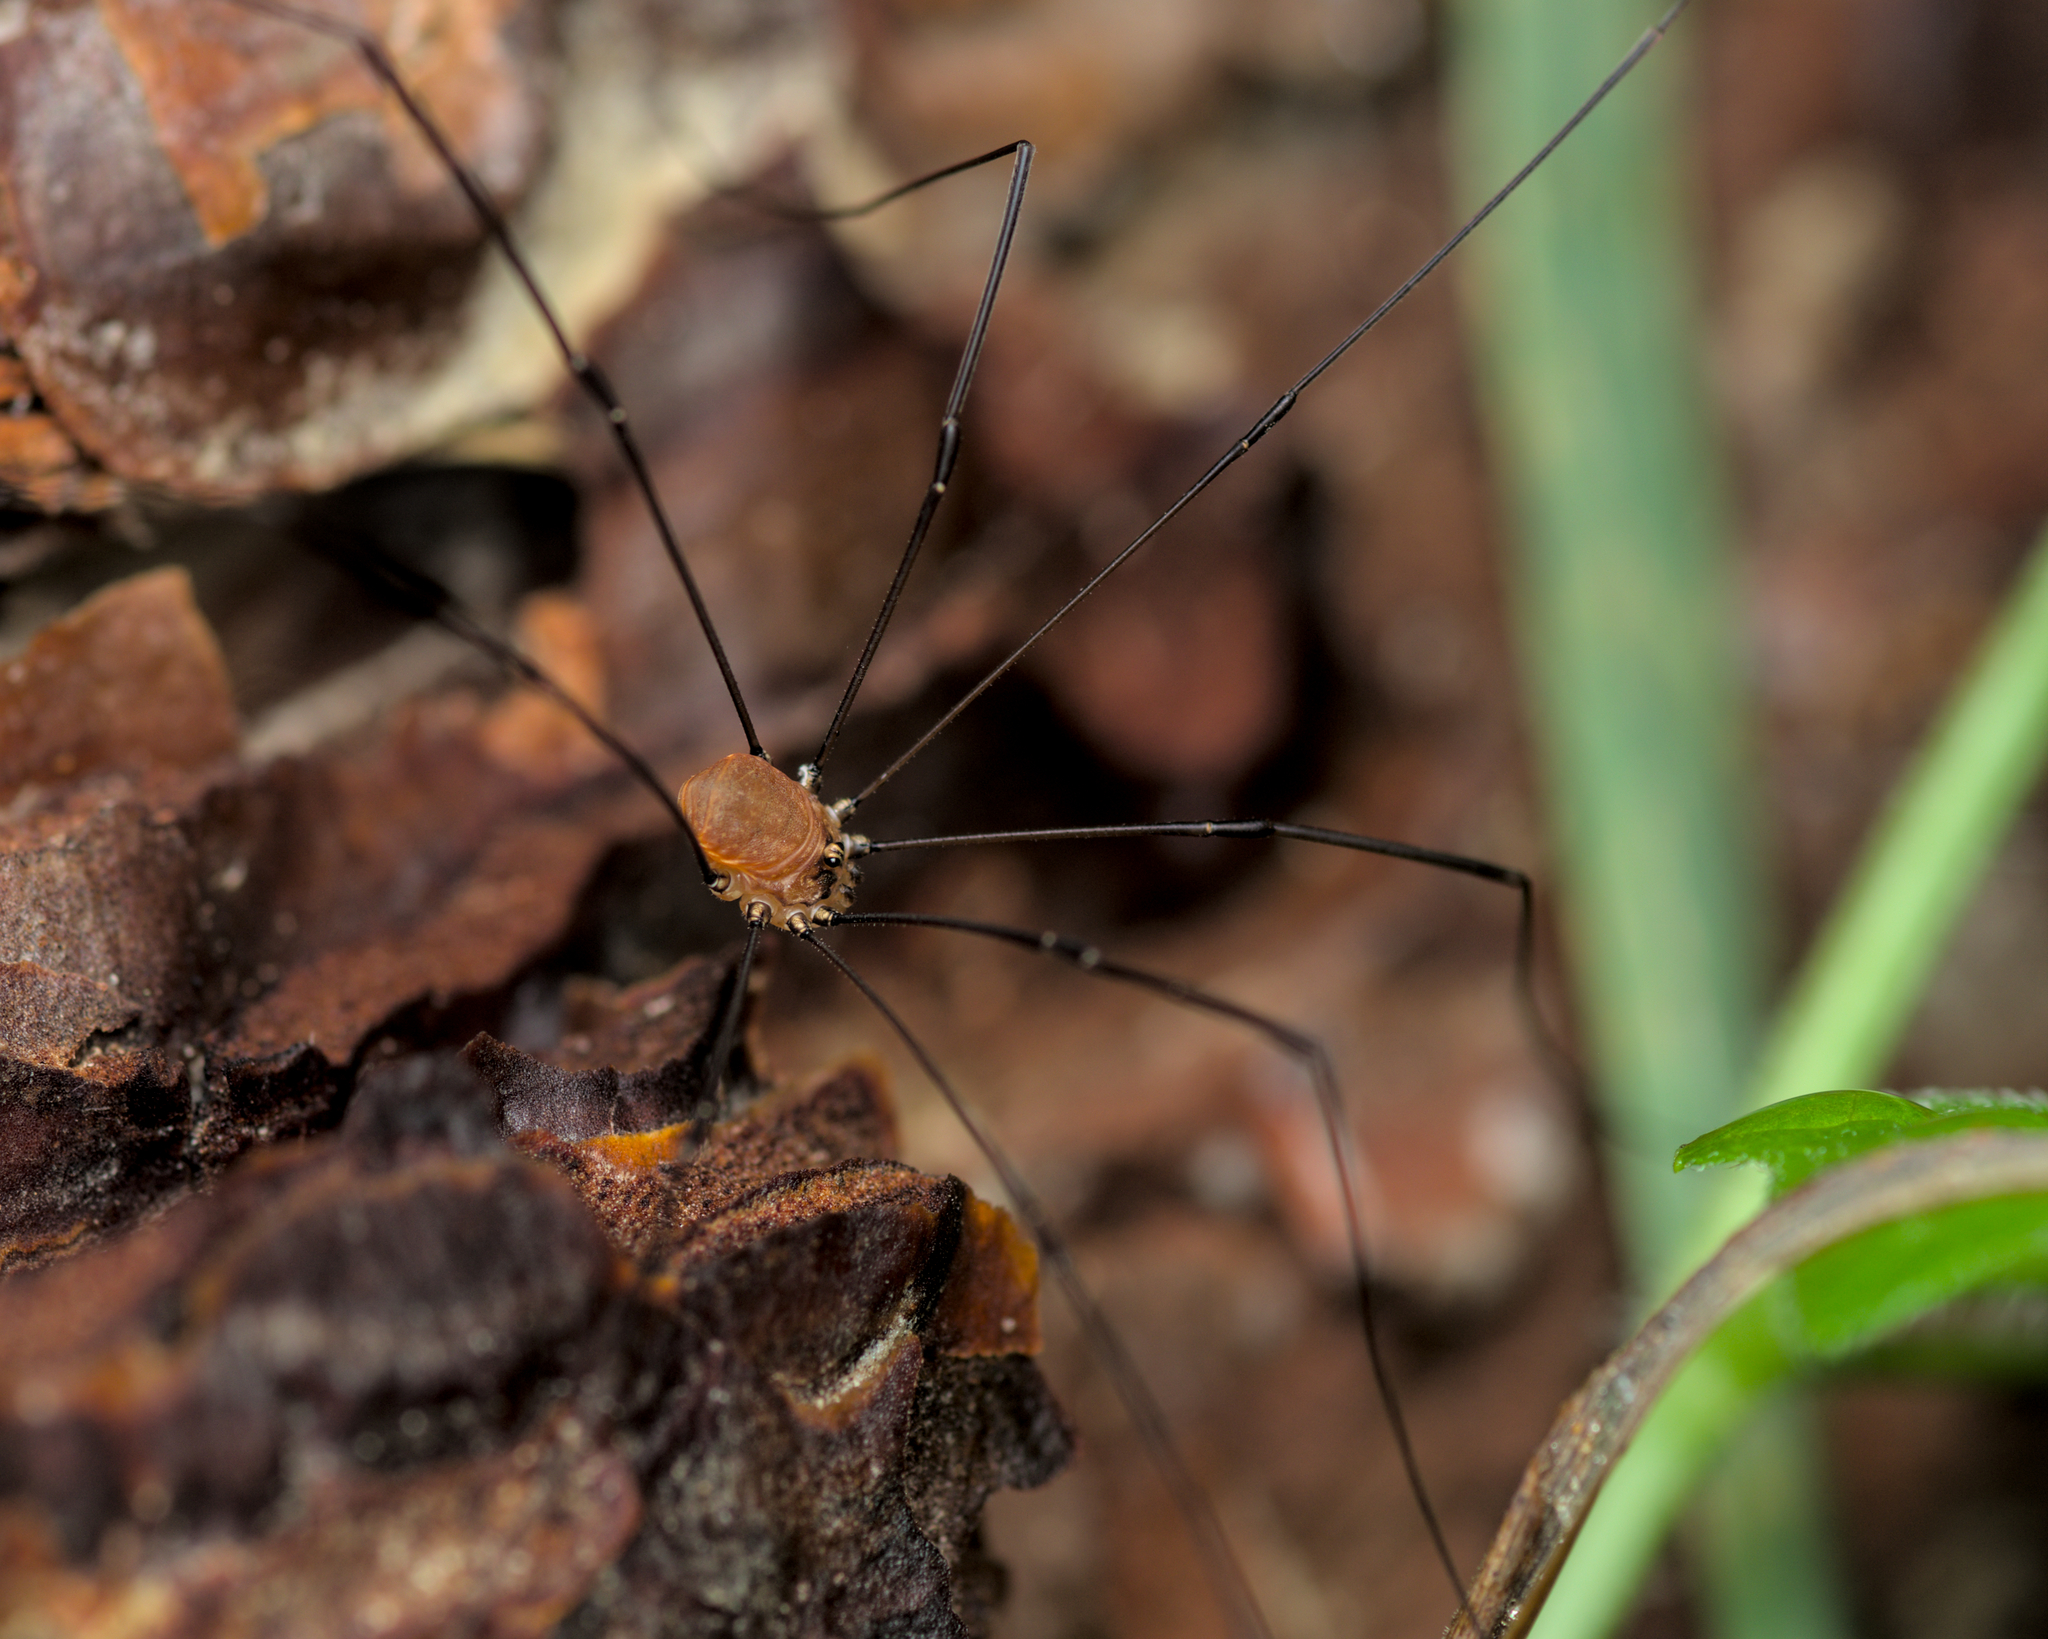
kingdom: Animalia
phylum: Arthropoda
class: Arachnida
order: Opiliones
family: Sclerosomatidae
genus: Leiobunum
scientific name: Leiobunum blackwalli
